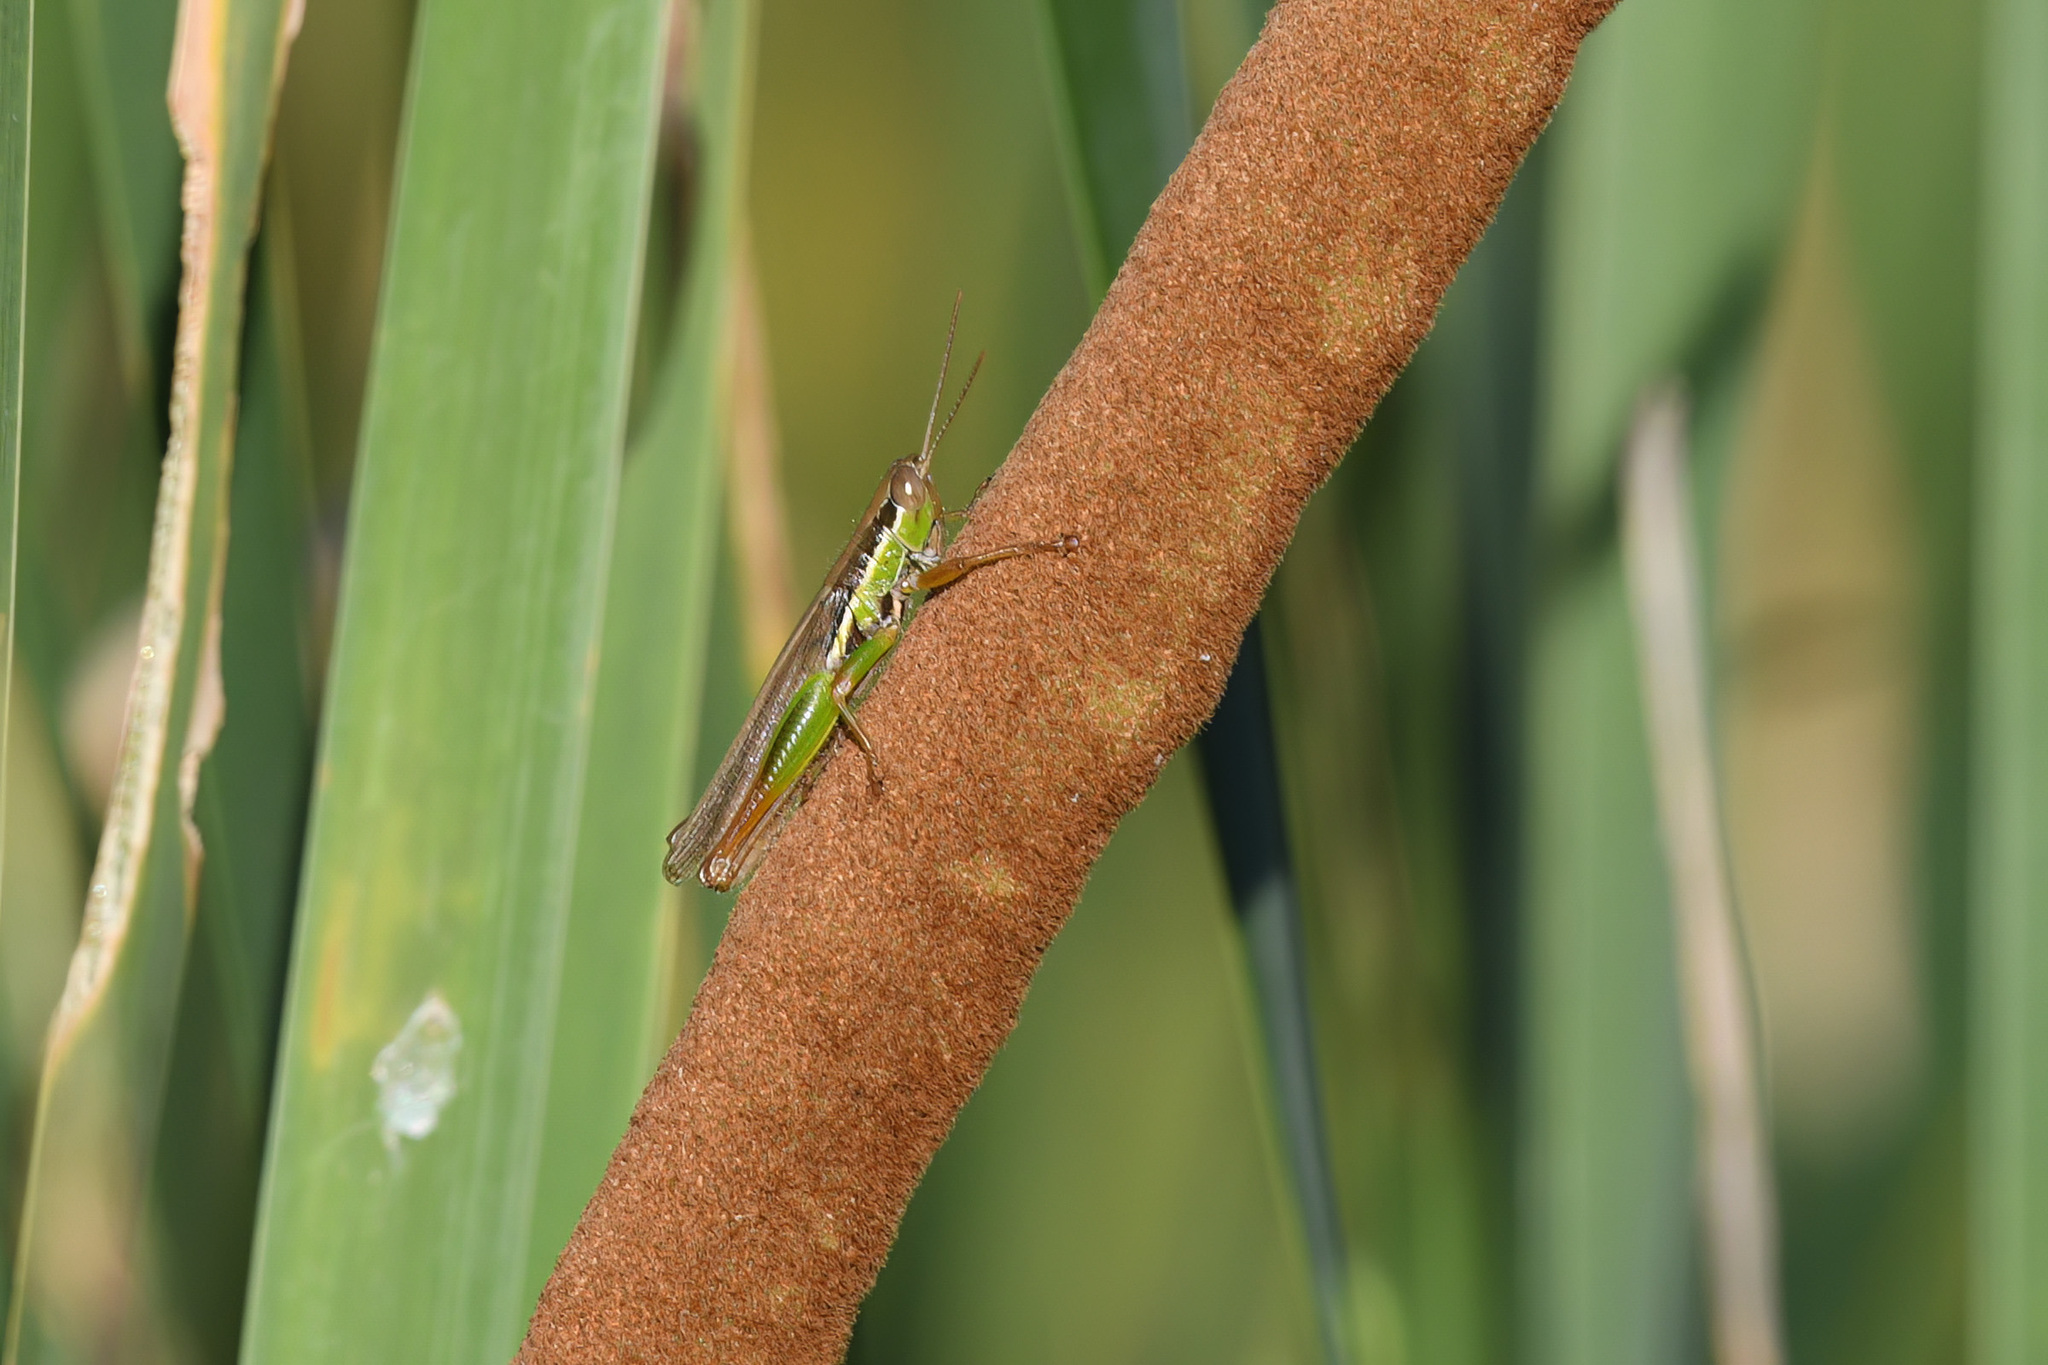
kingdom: Animalia
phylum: Arthropoda
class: Insecta
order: Orthoptera
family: Acrididae
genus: Bermius
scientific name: Bermius brachycerus
